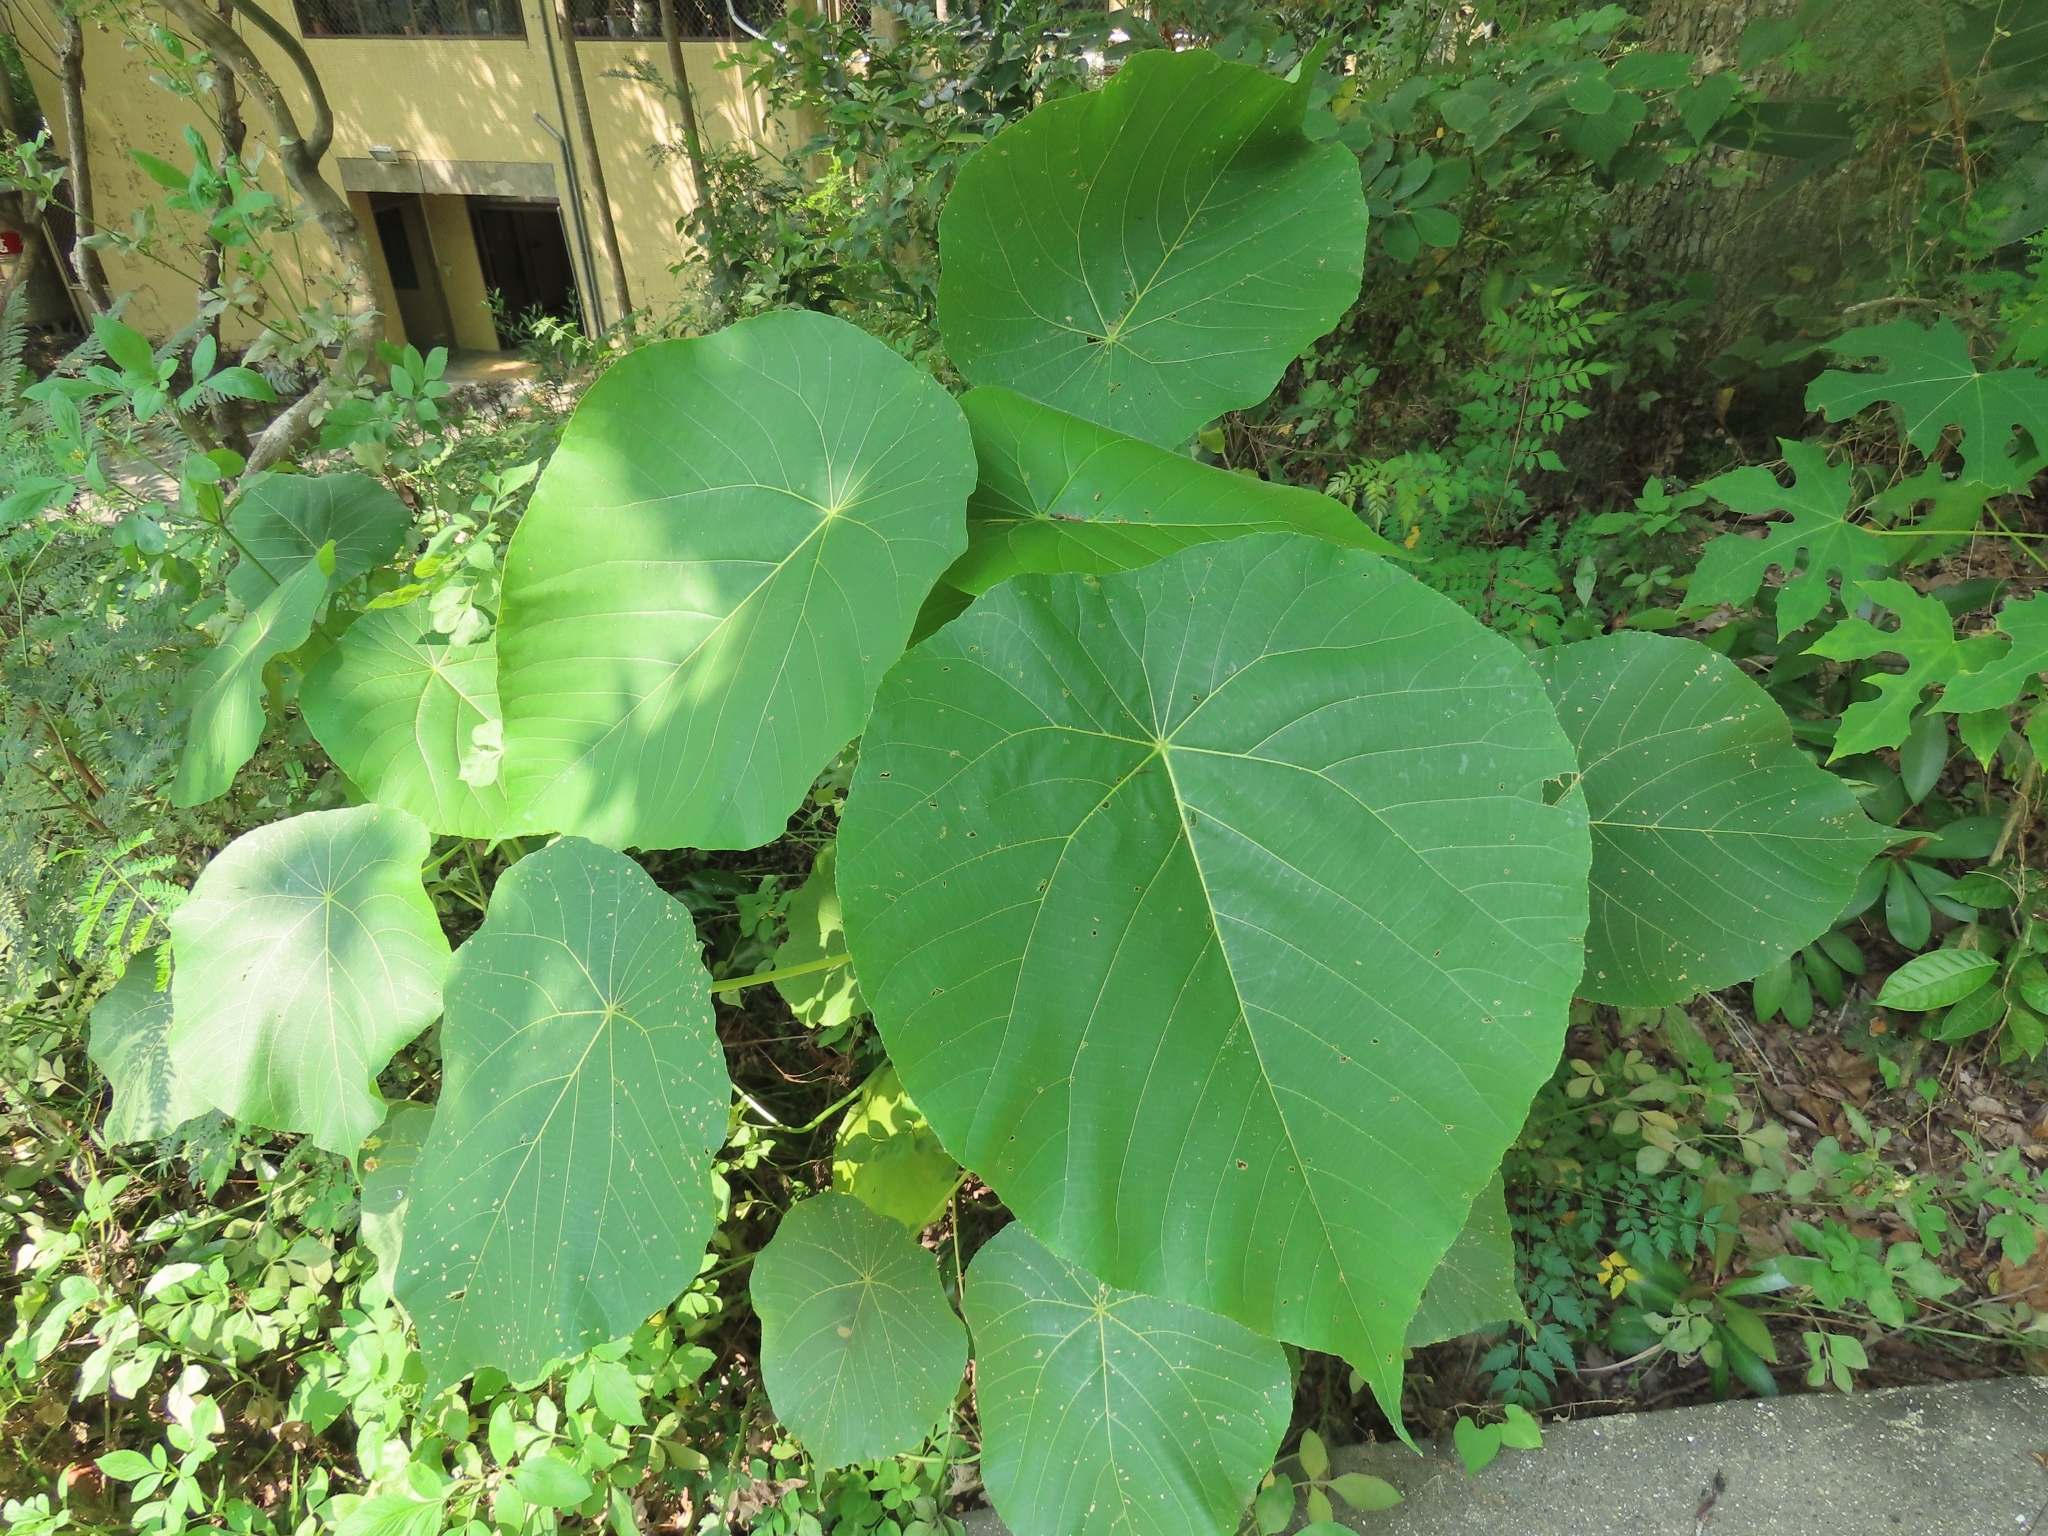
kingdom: Plantae
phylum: Tracheophyta
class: Magnoliopsida
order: Malpighiales
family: Euphorbiaceae
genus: Macaranga
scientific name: Macaranga tanarius
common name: Parasol leaf tree
